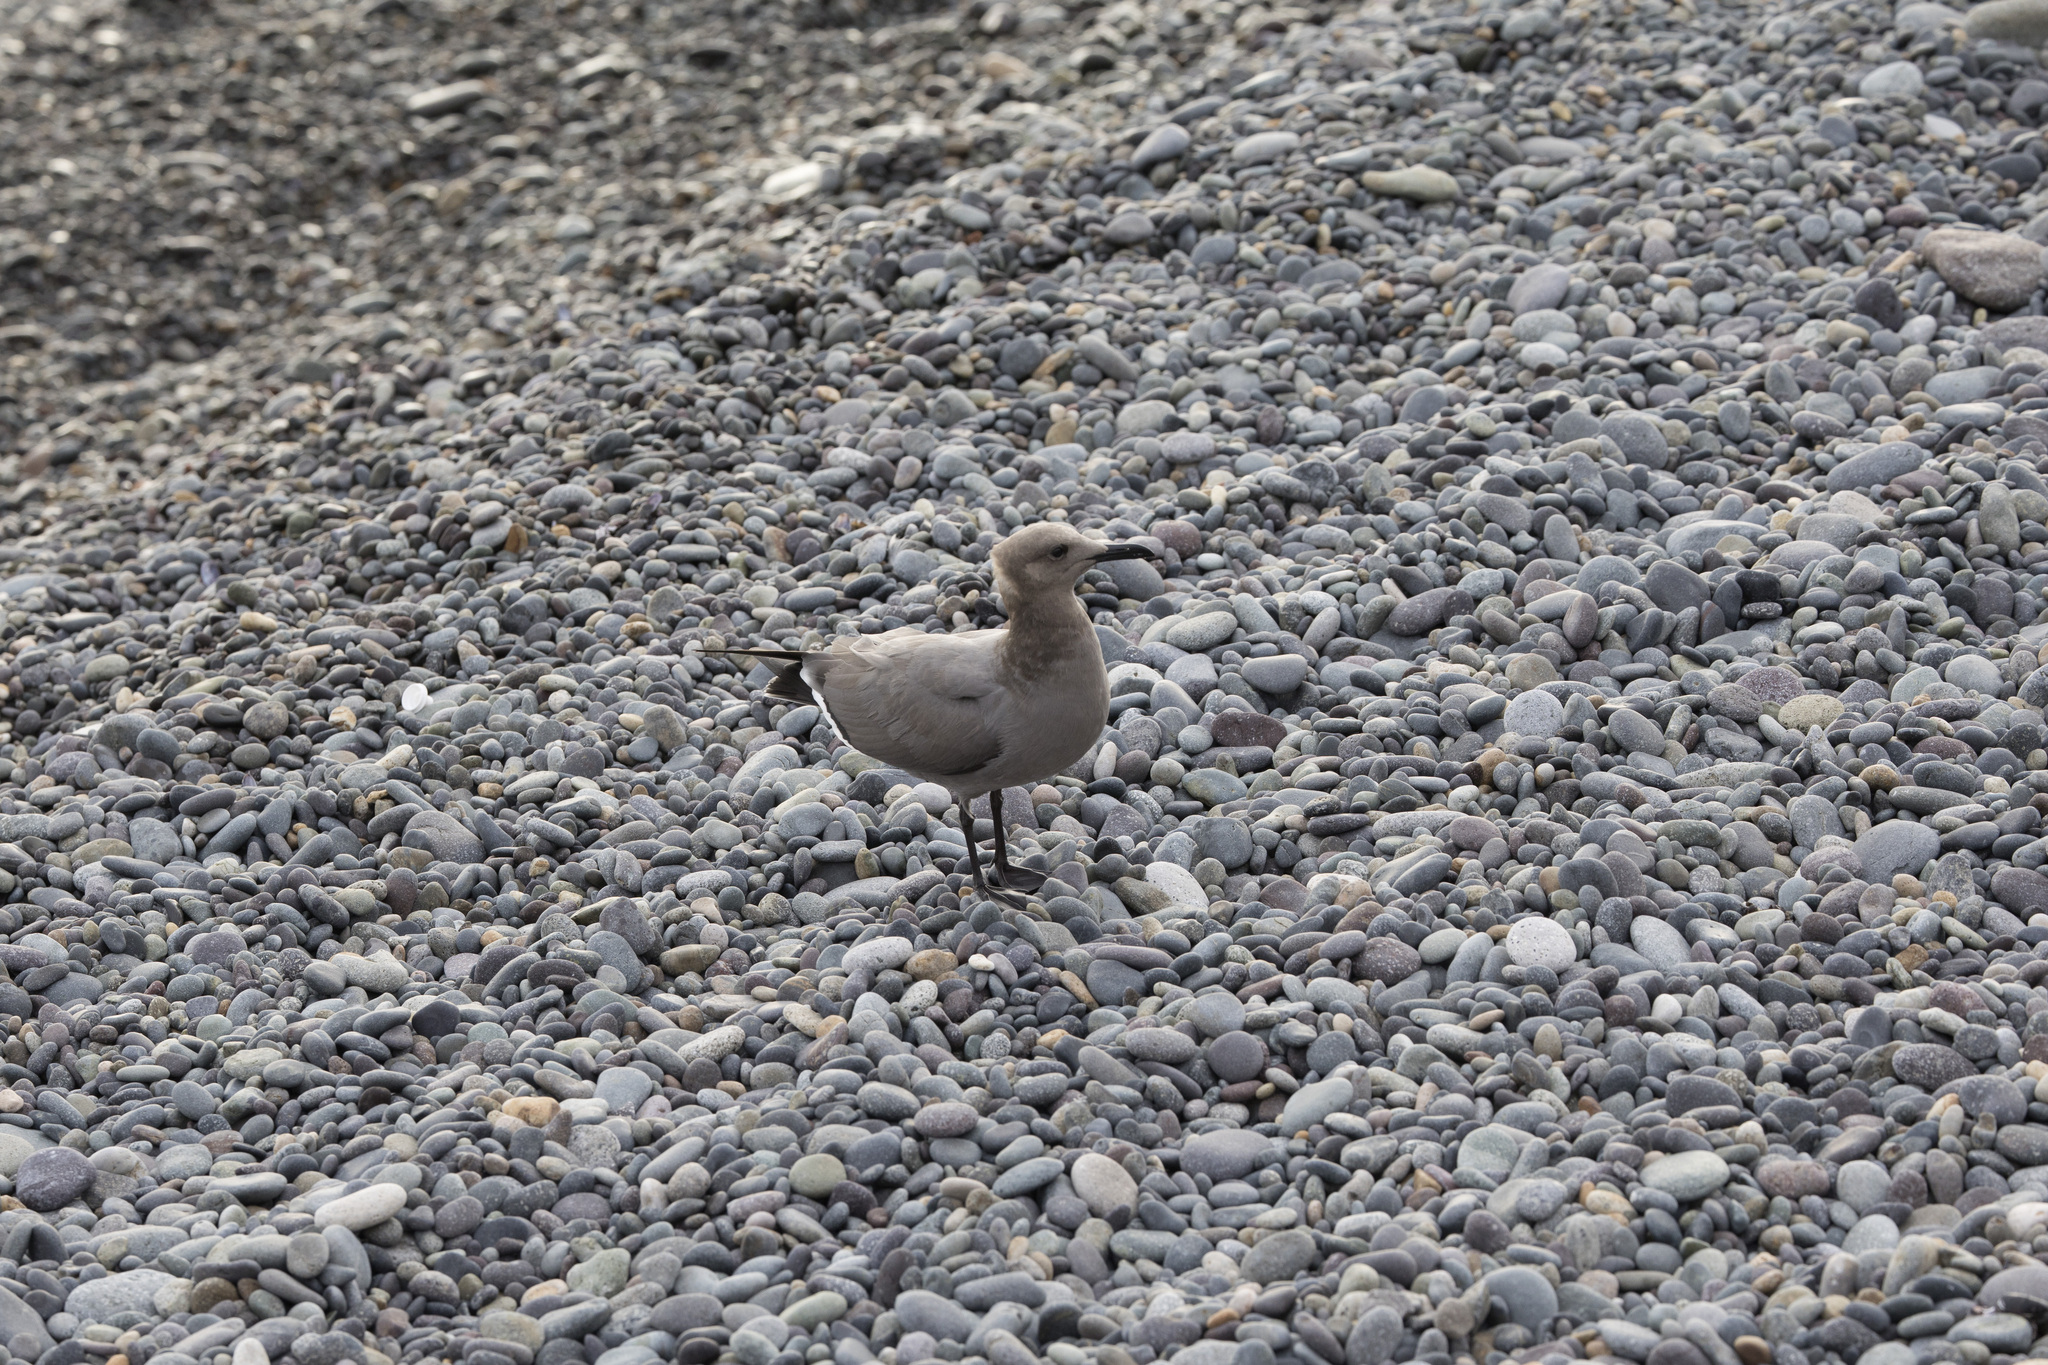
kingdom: Animalia
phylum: Chordata
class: Aves
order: Charadriiformes
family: Laridae
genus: Leucophaeus
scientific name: Leucophaeus modestus
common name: Gray gull
